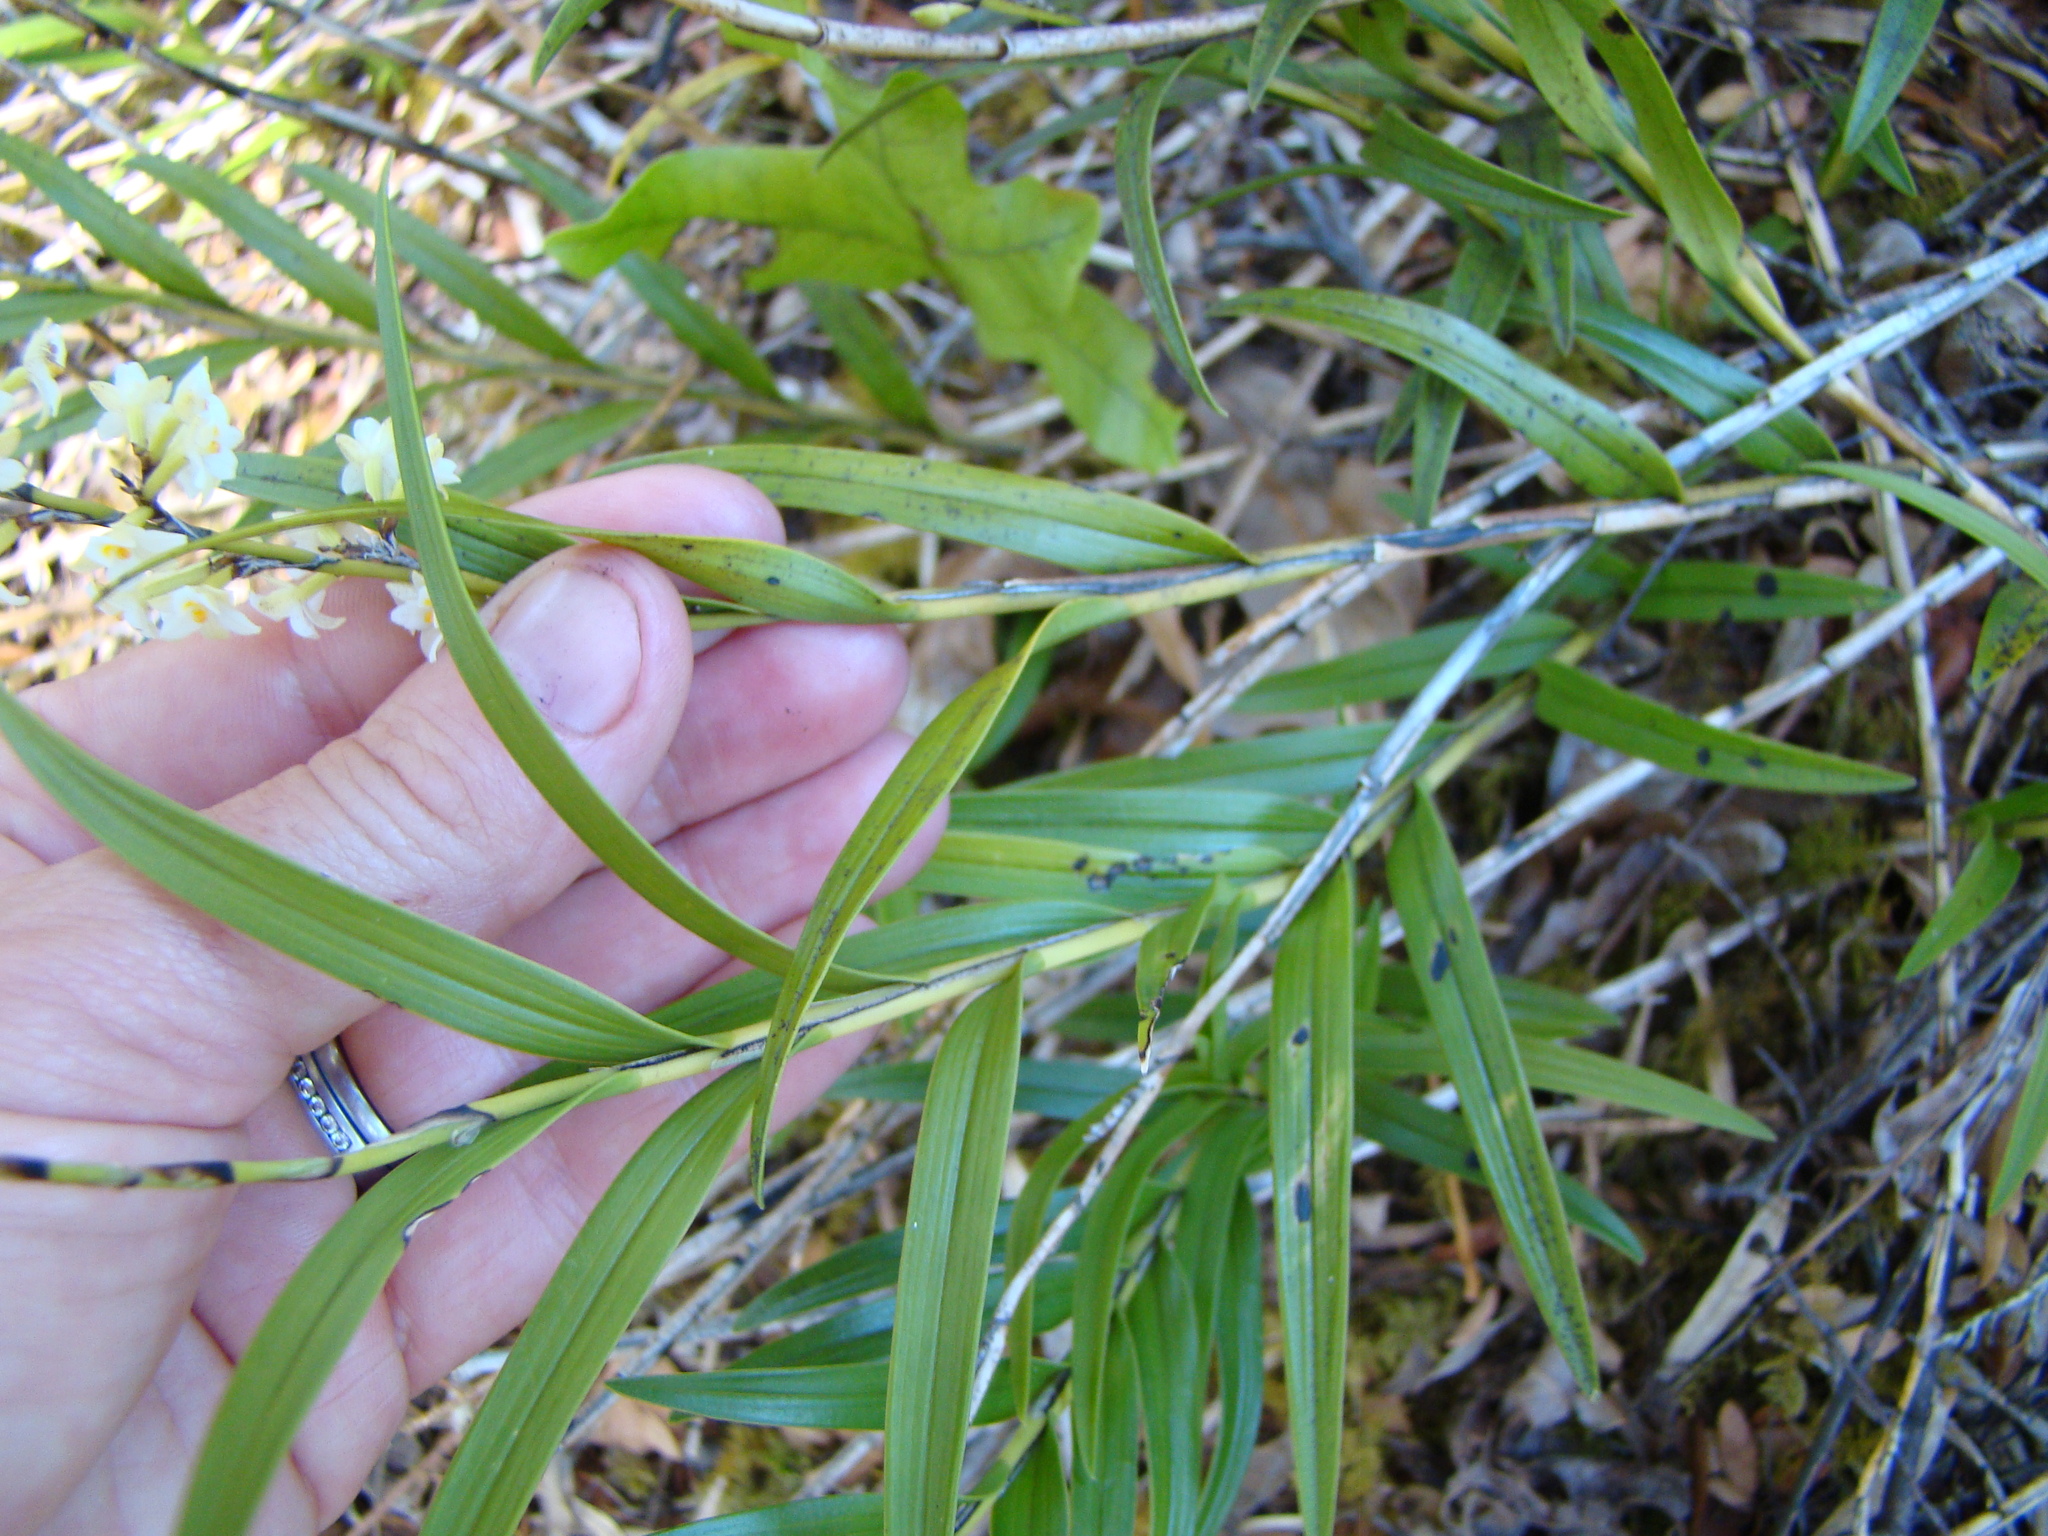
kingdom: Plantae
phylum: Tracheophyta
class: Liliopsida
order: Asparagales
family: Orchidaceae
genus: Earina
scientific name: Earina autumnalis
